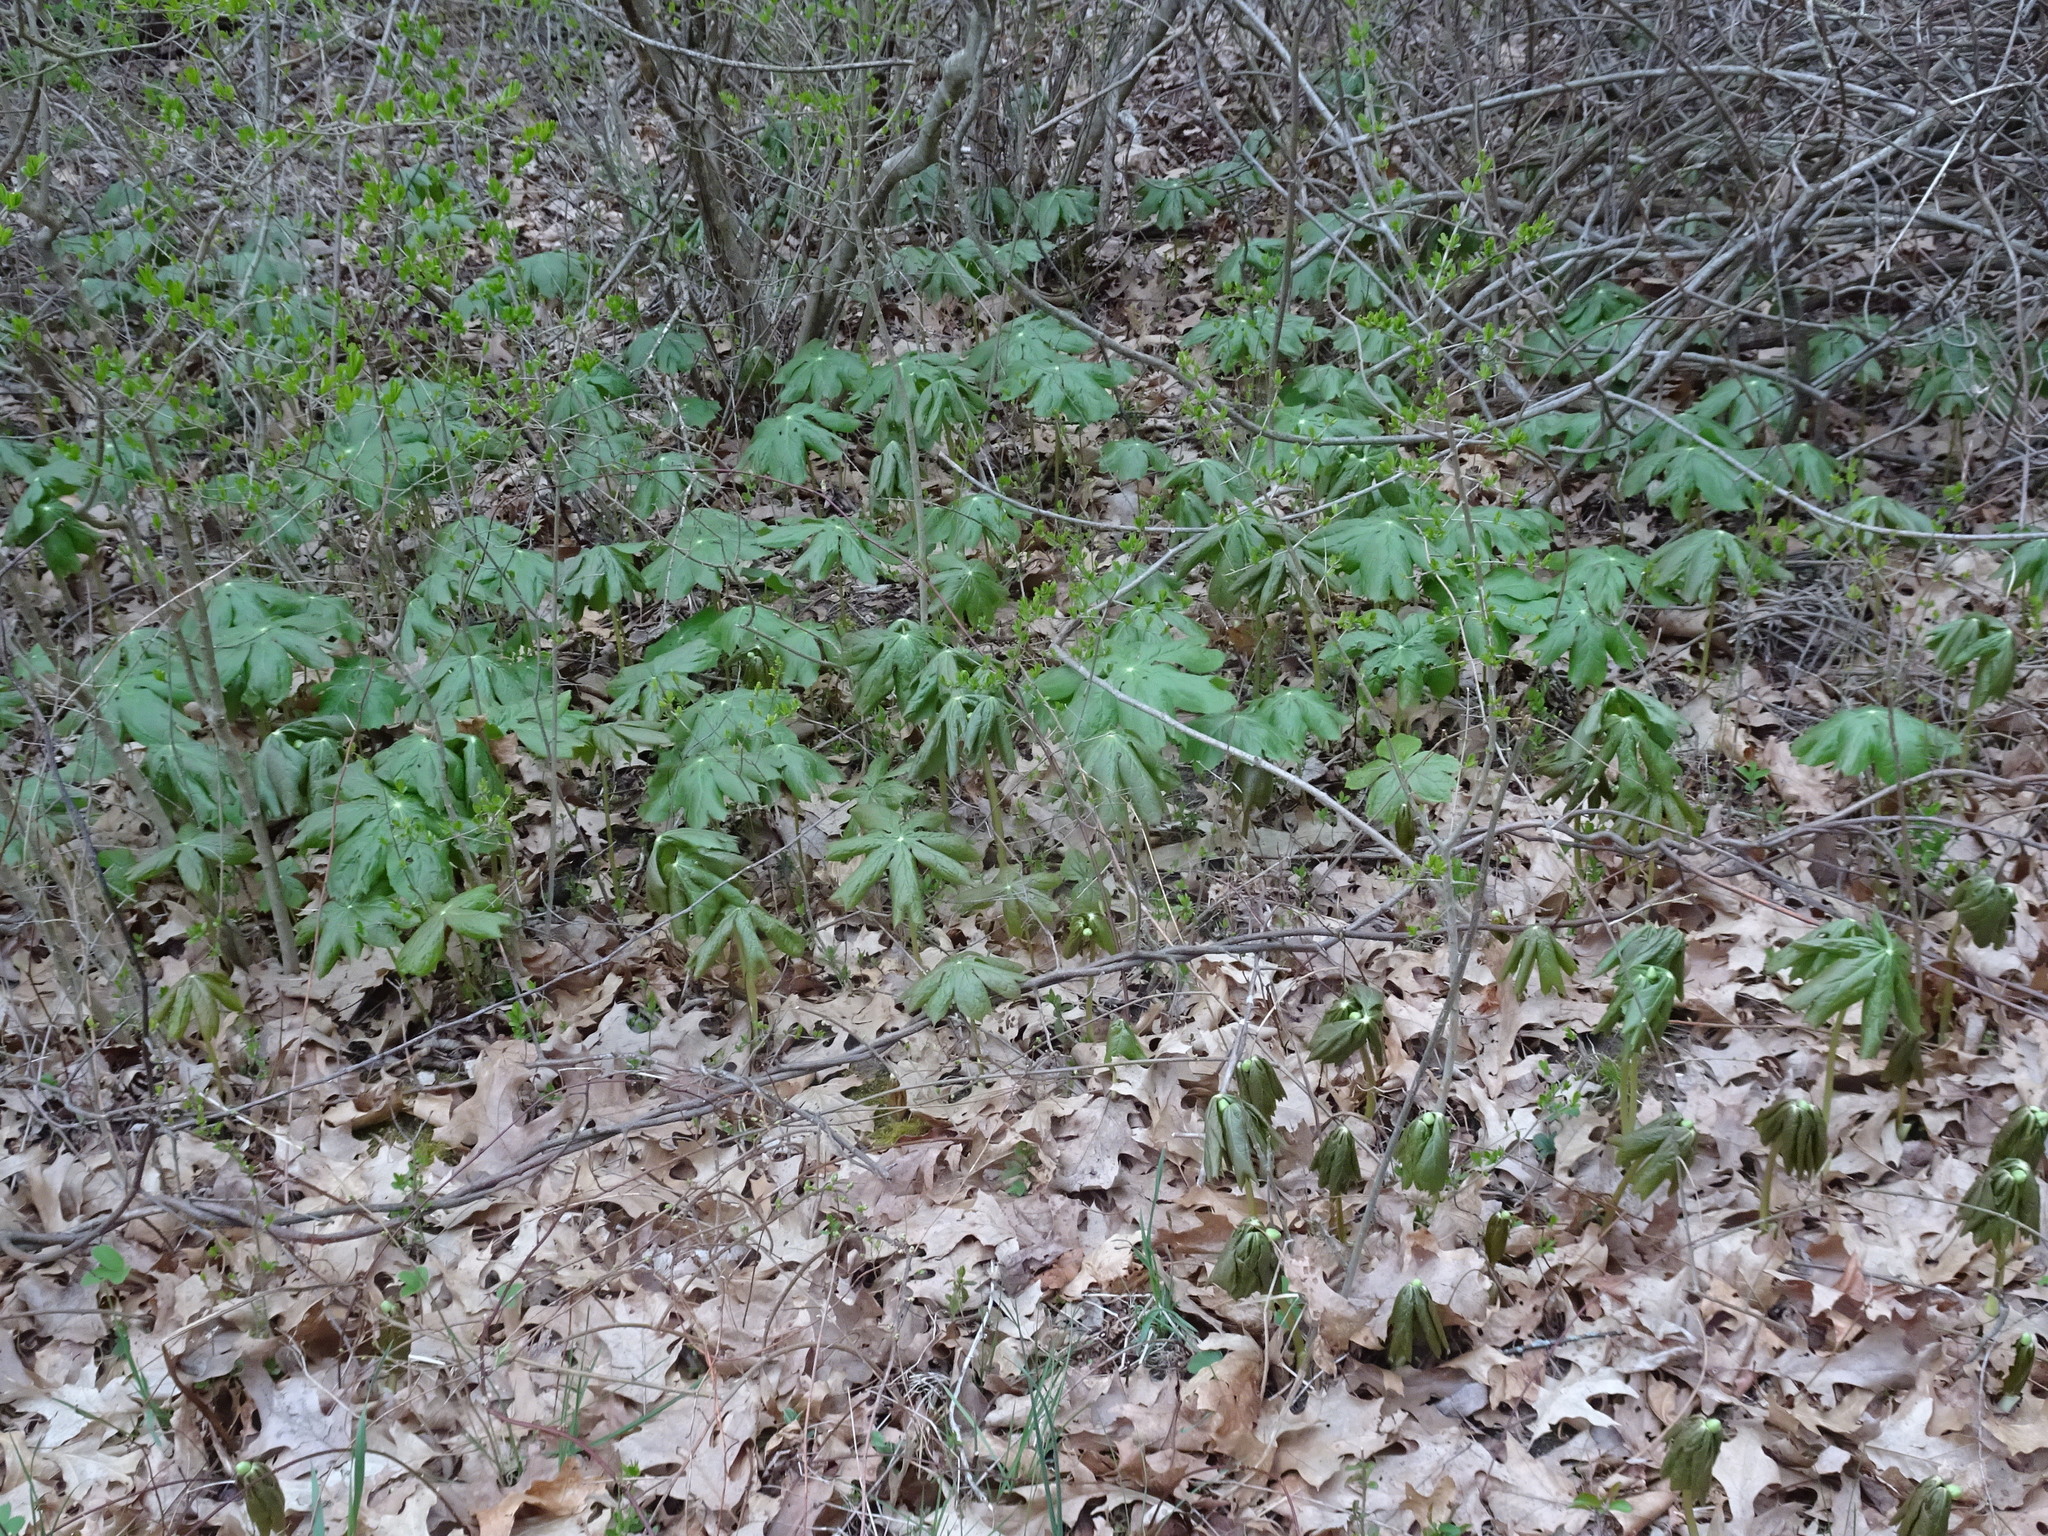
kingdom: Plantae
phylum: Tracheophyta
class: Magnoliopsida
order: Ranunculales
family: Berberidaceae
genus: Podophyllum
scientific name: Podophyllum peltatum
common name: Wild mandrake
